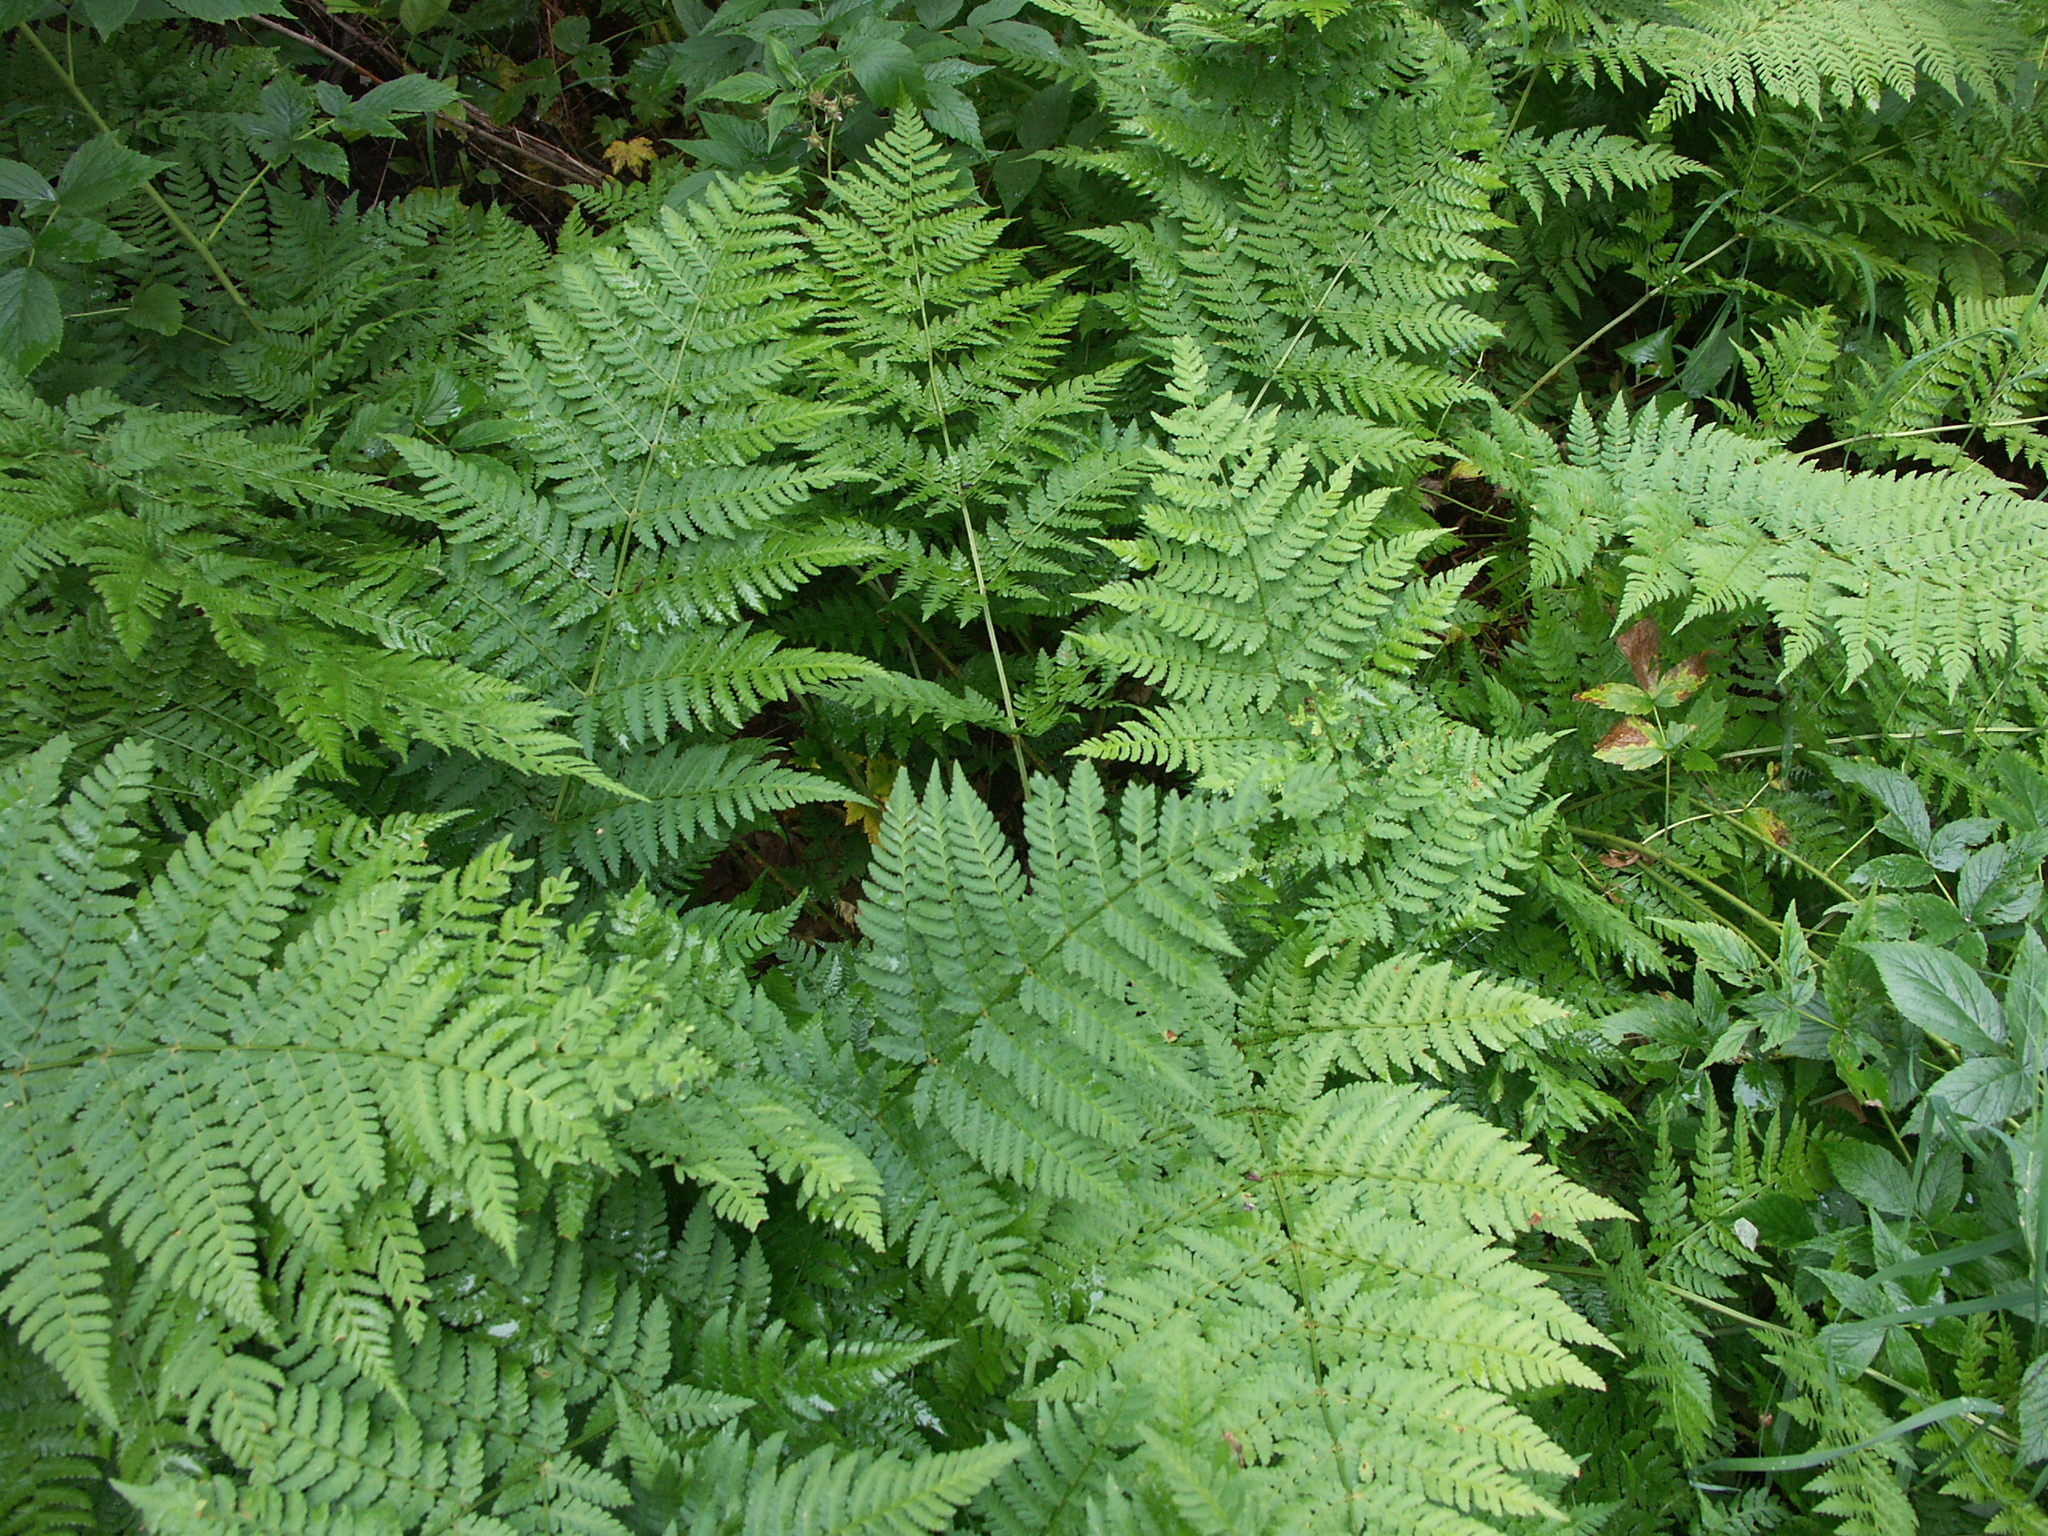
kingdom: Plantae
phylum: Tracheophyta
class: Polypodiopsida
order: Polypodiales
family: Dryopteridaceae
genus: Dryopteris
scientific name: Dryopteris expansa
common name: Northern buckler fern
